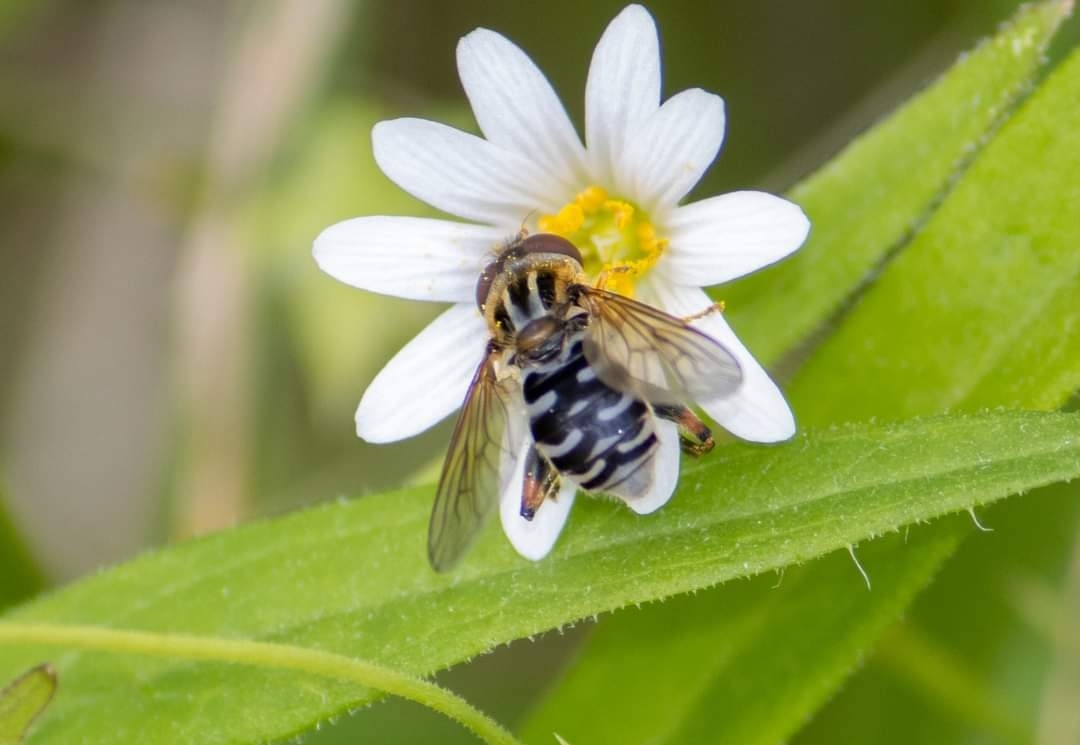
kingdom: Animalia
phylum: Arthropoda
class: Insecta
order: Diptera
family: Syrphidae
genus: Eurimyia
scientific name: Eurimyia lineatus
